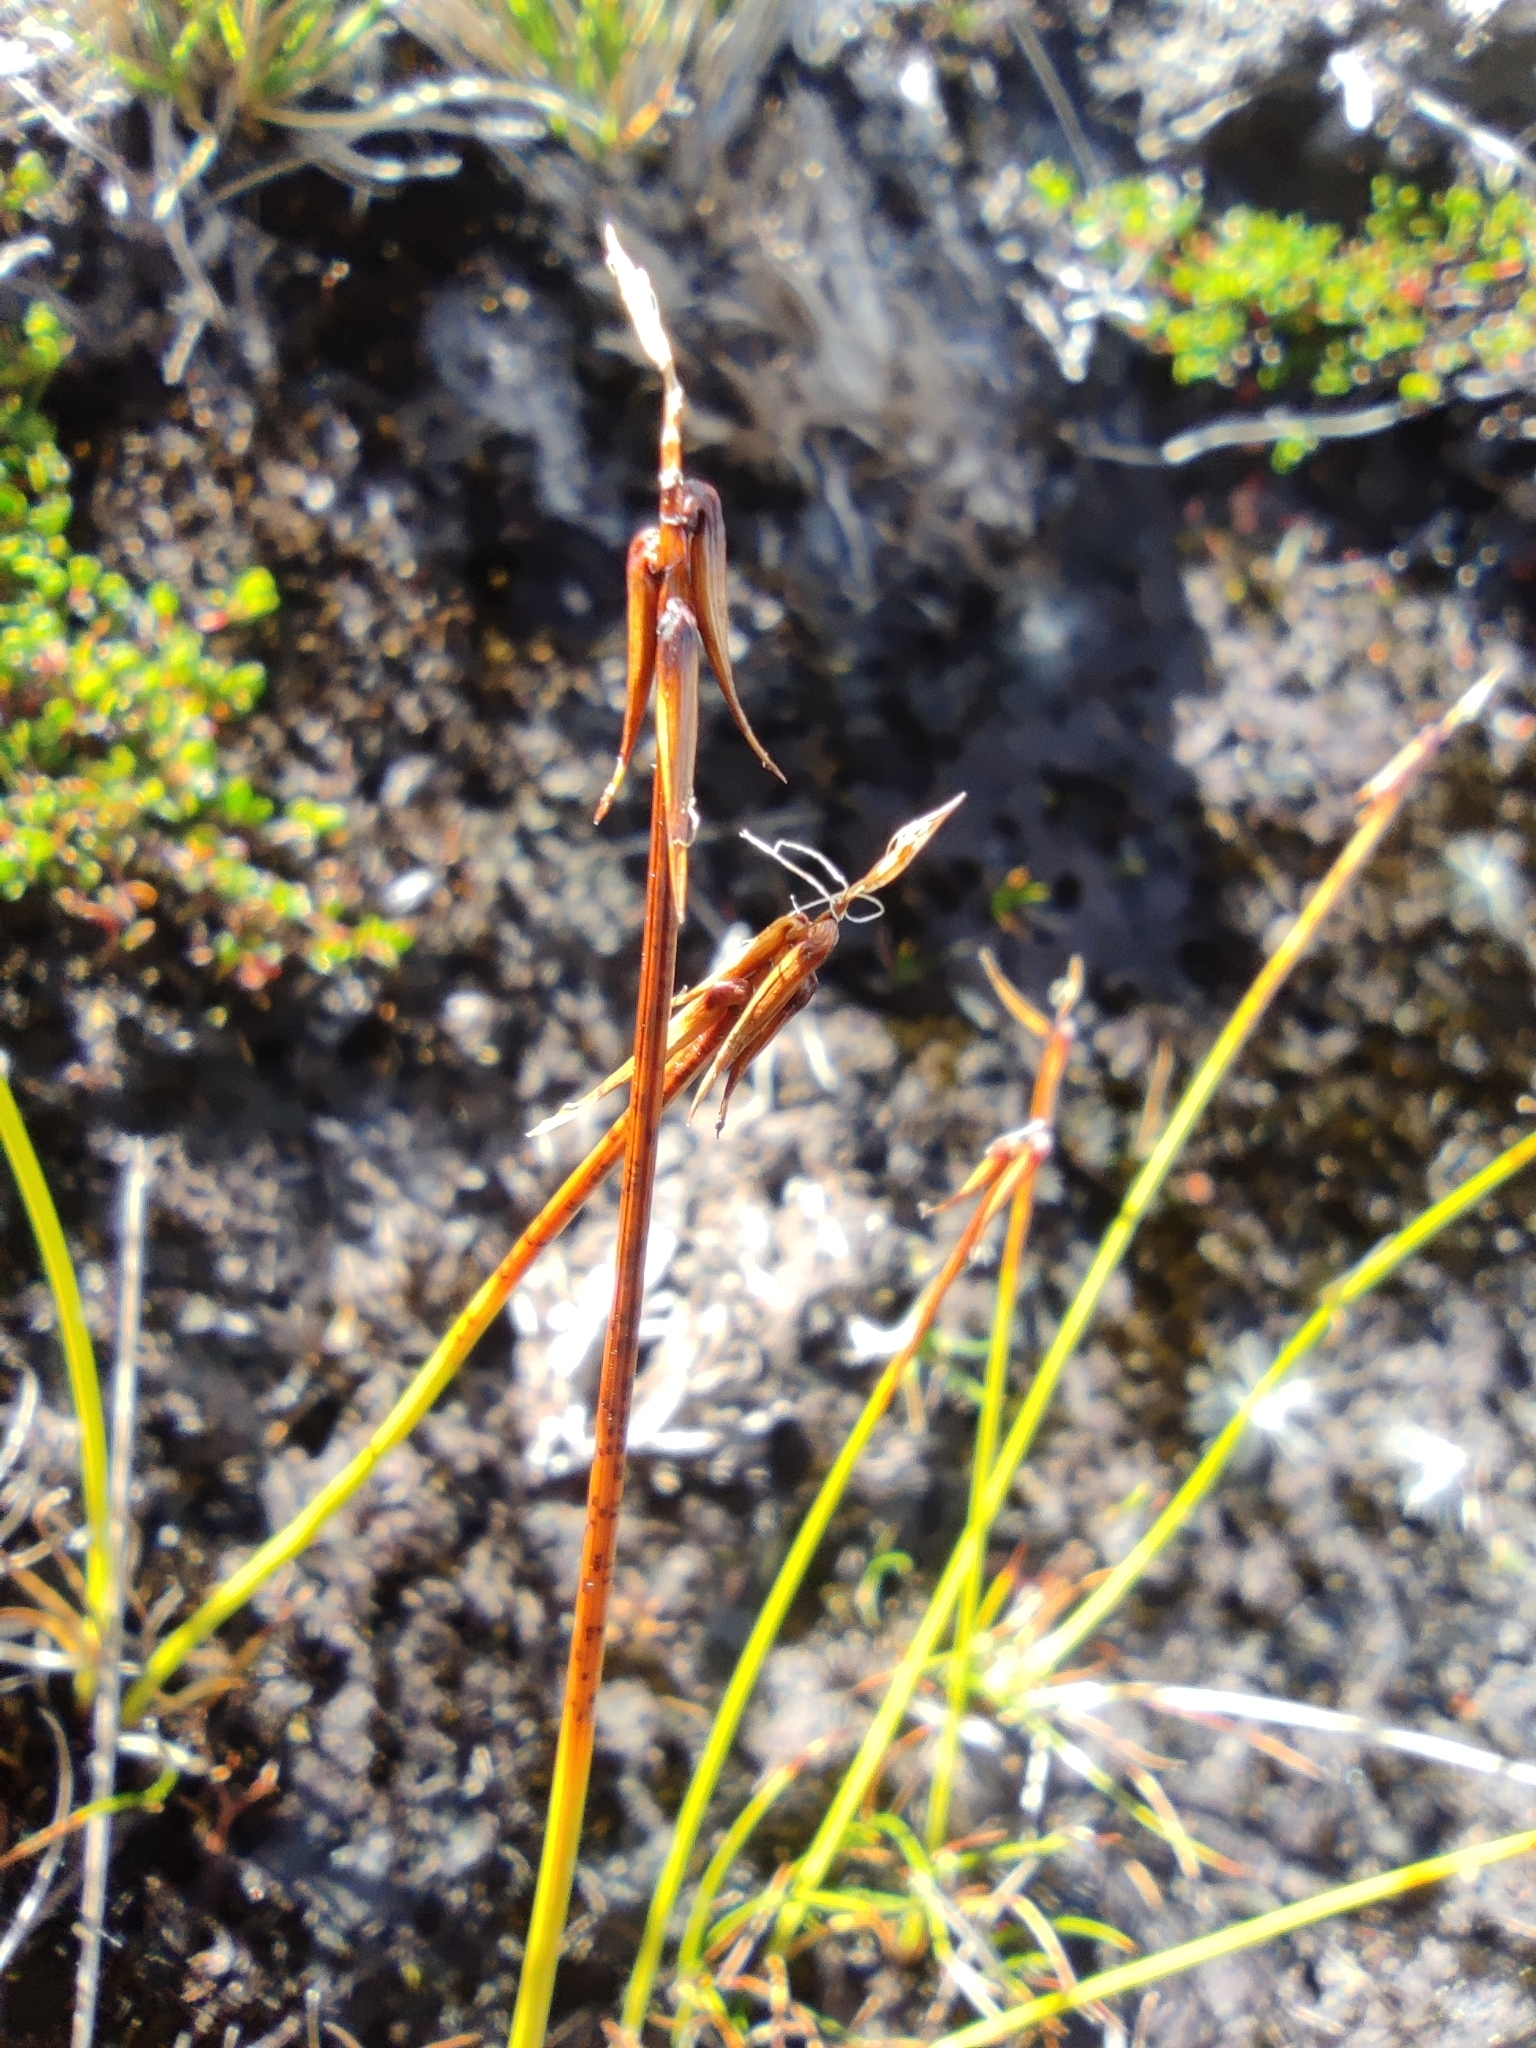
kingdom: Plantae
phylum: Tracheophyta
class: Liliopsida
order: Poales
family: Cyperaceae
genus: Carex
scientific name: Carex camptoglochin
